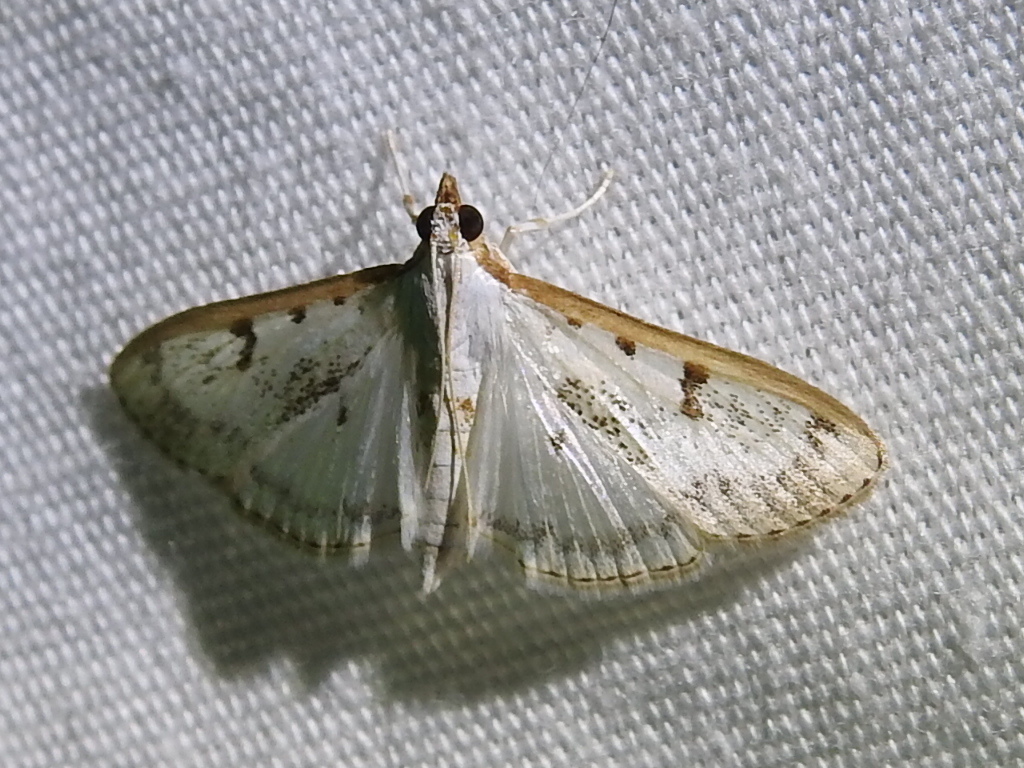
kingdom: Animalia
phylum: Arthropoda
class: Insecta
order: Lepidoptera
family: Crambidae
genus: Palpita
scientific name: Palpita gracilalis
